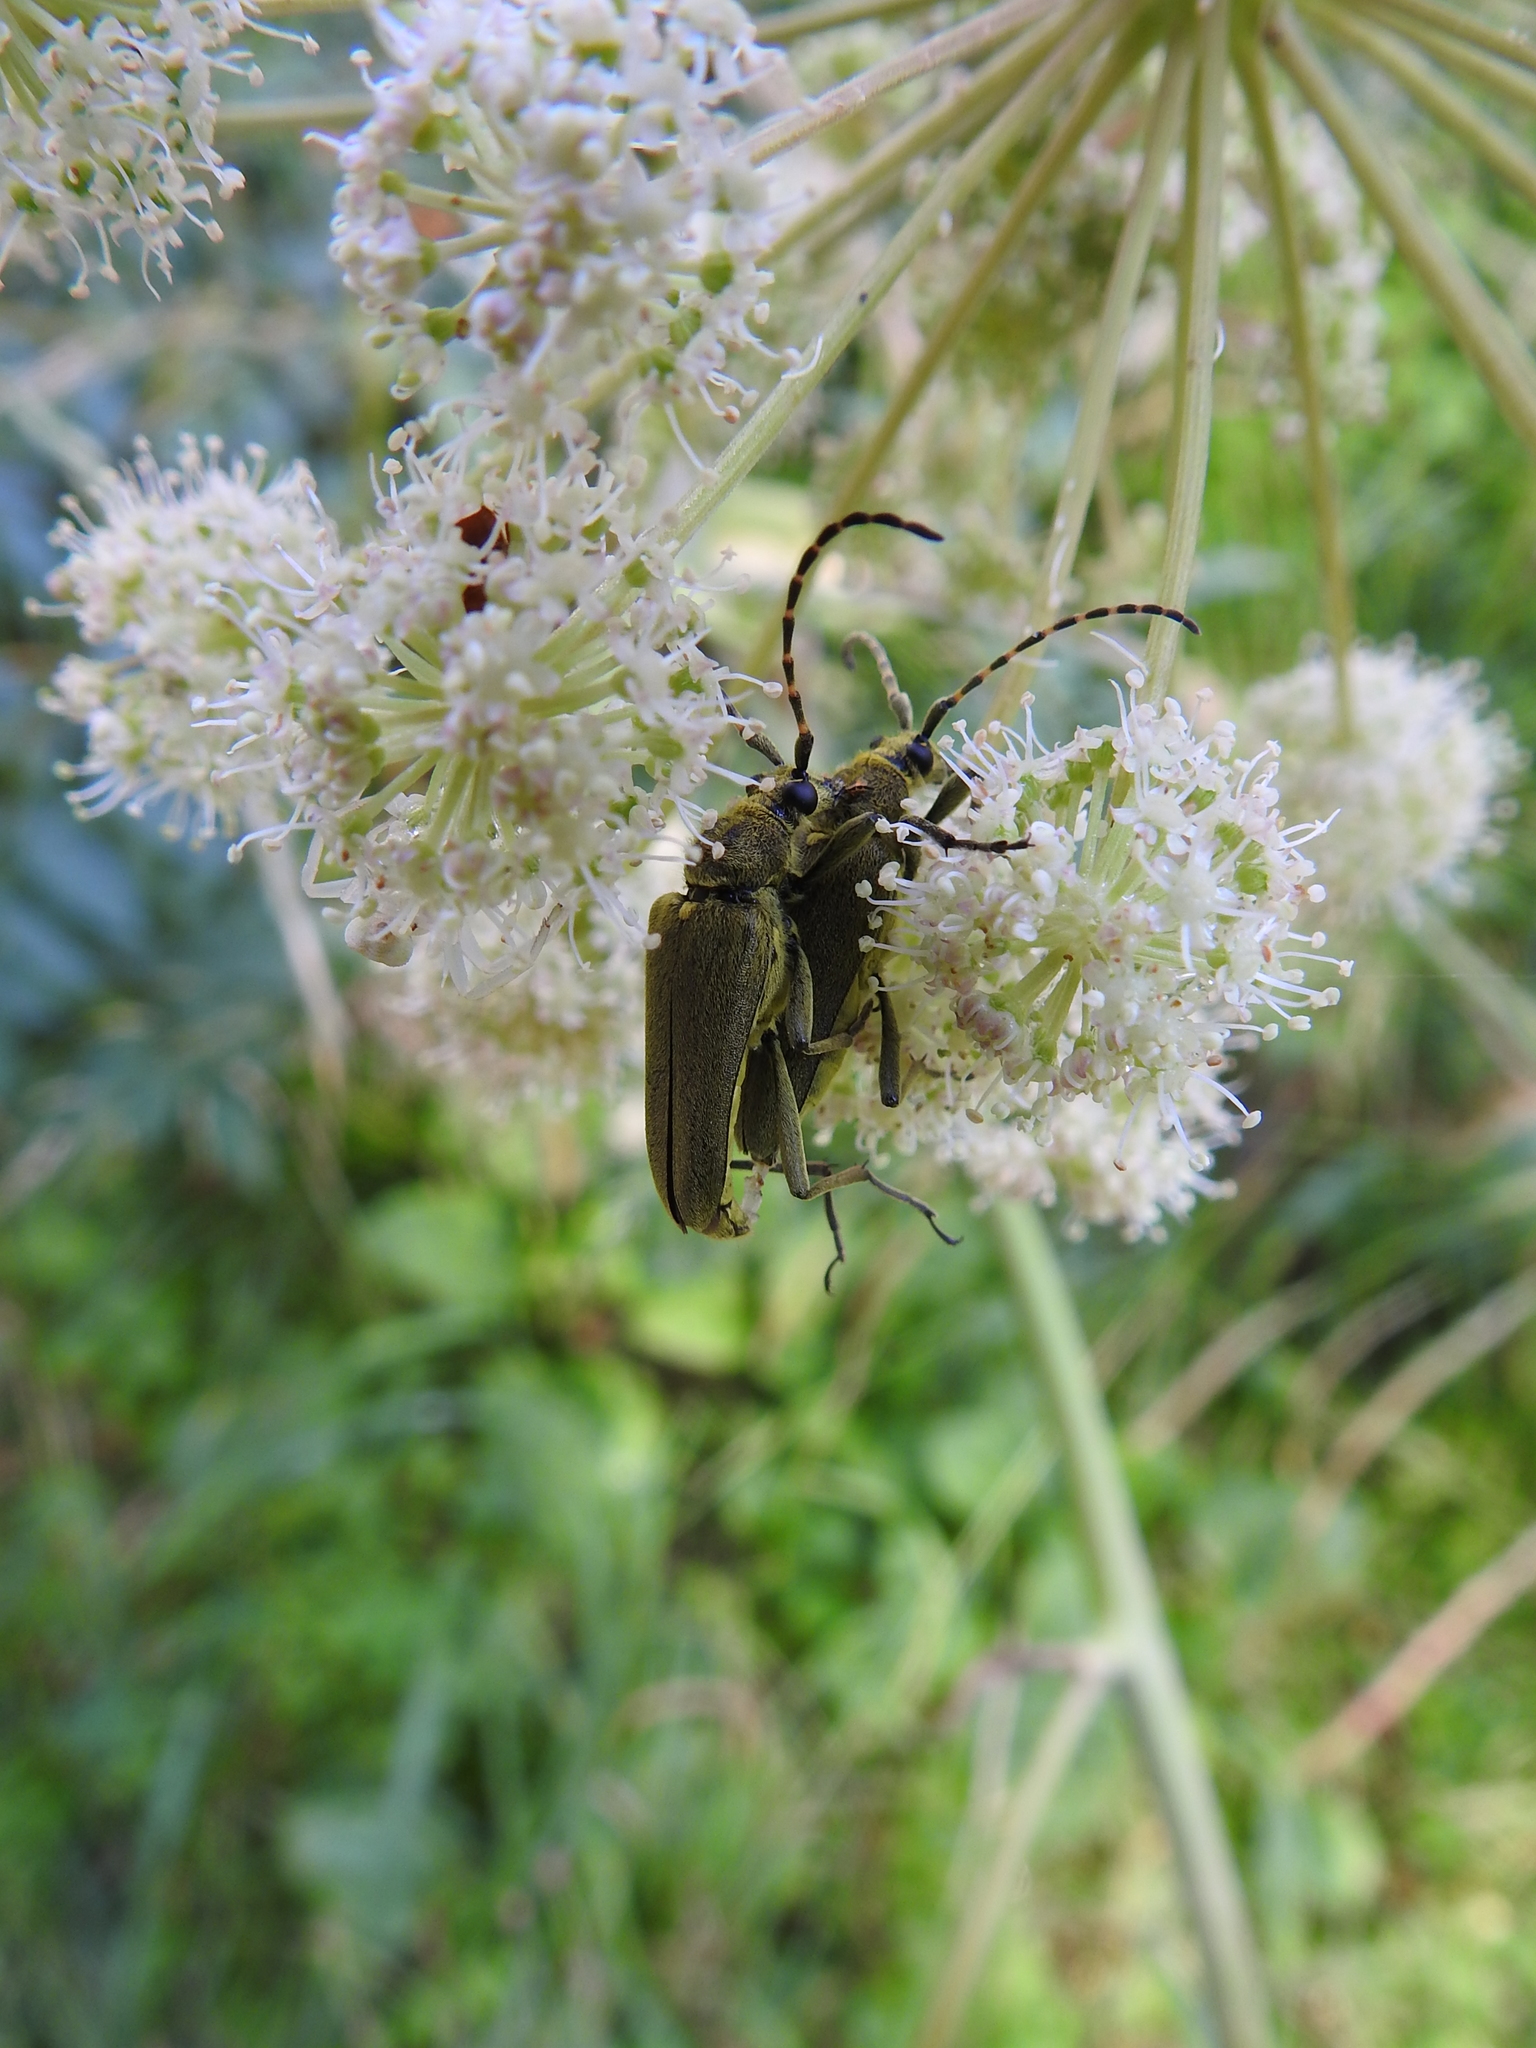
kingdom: Animalia
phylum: Arthropoda
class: Insecta
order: Coleoptera
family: Cerambycidae
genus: Lepturobosca
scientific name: Lepturobosca virens
